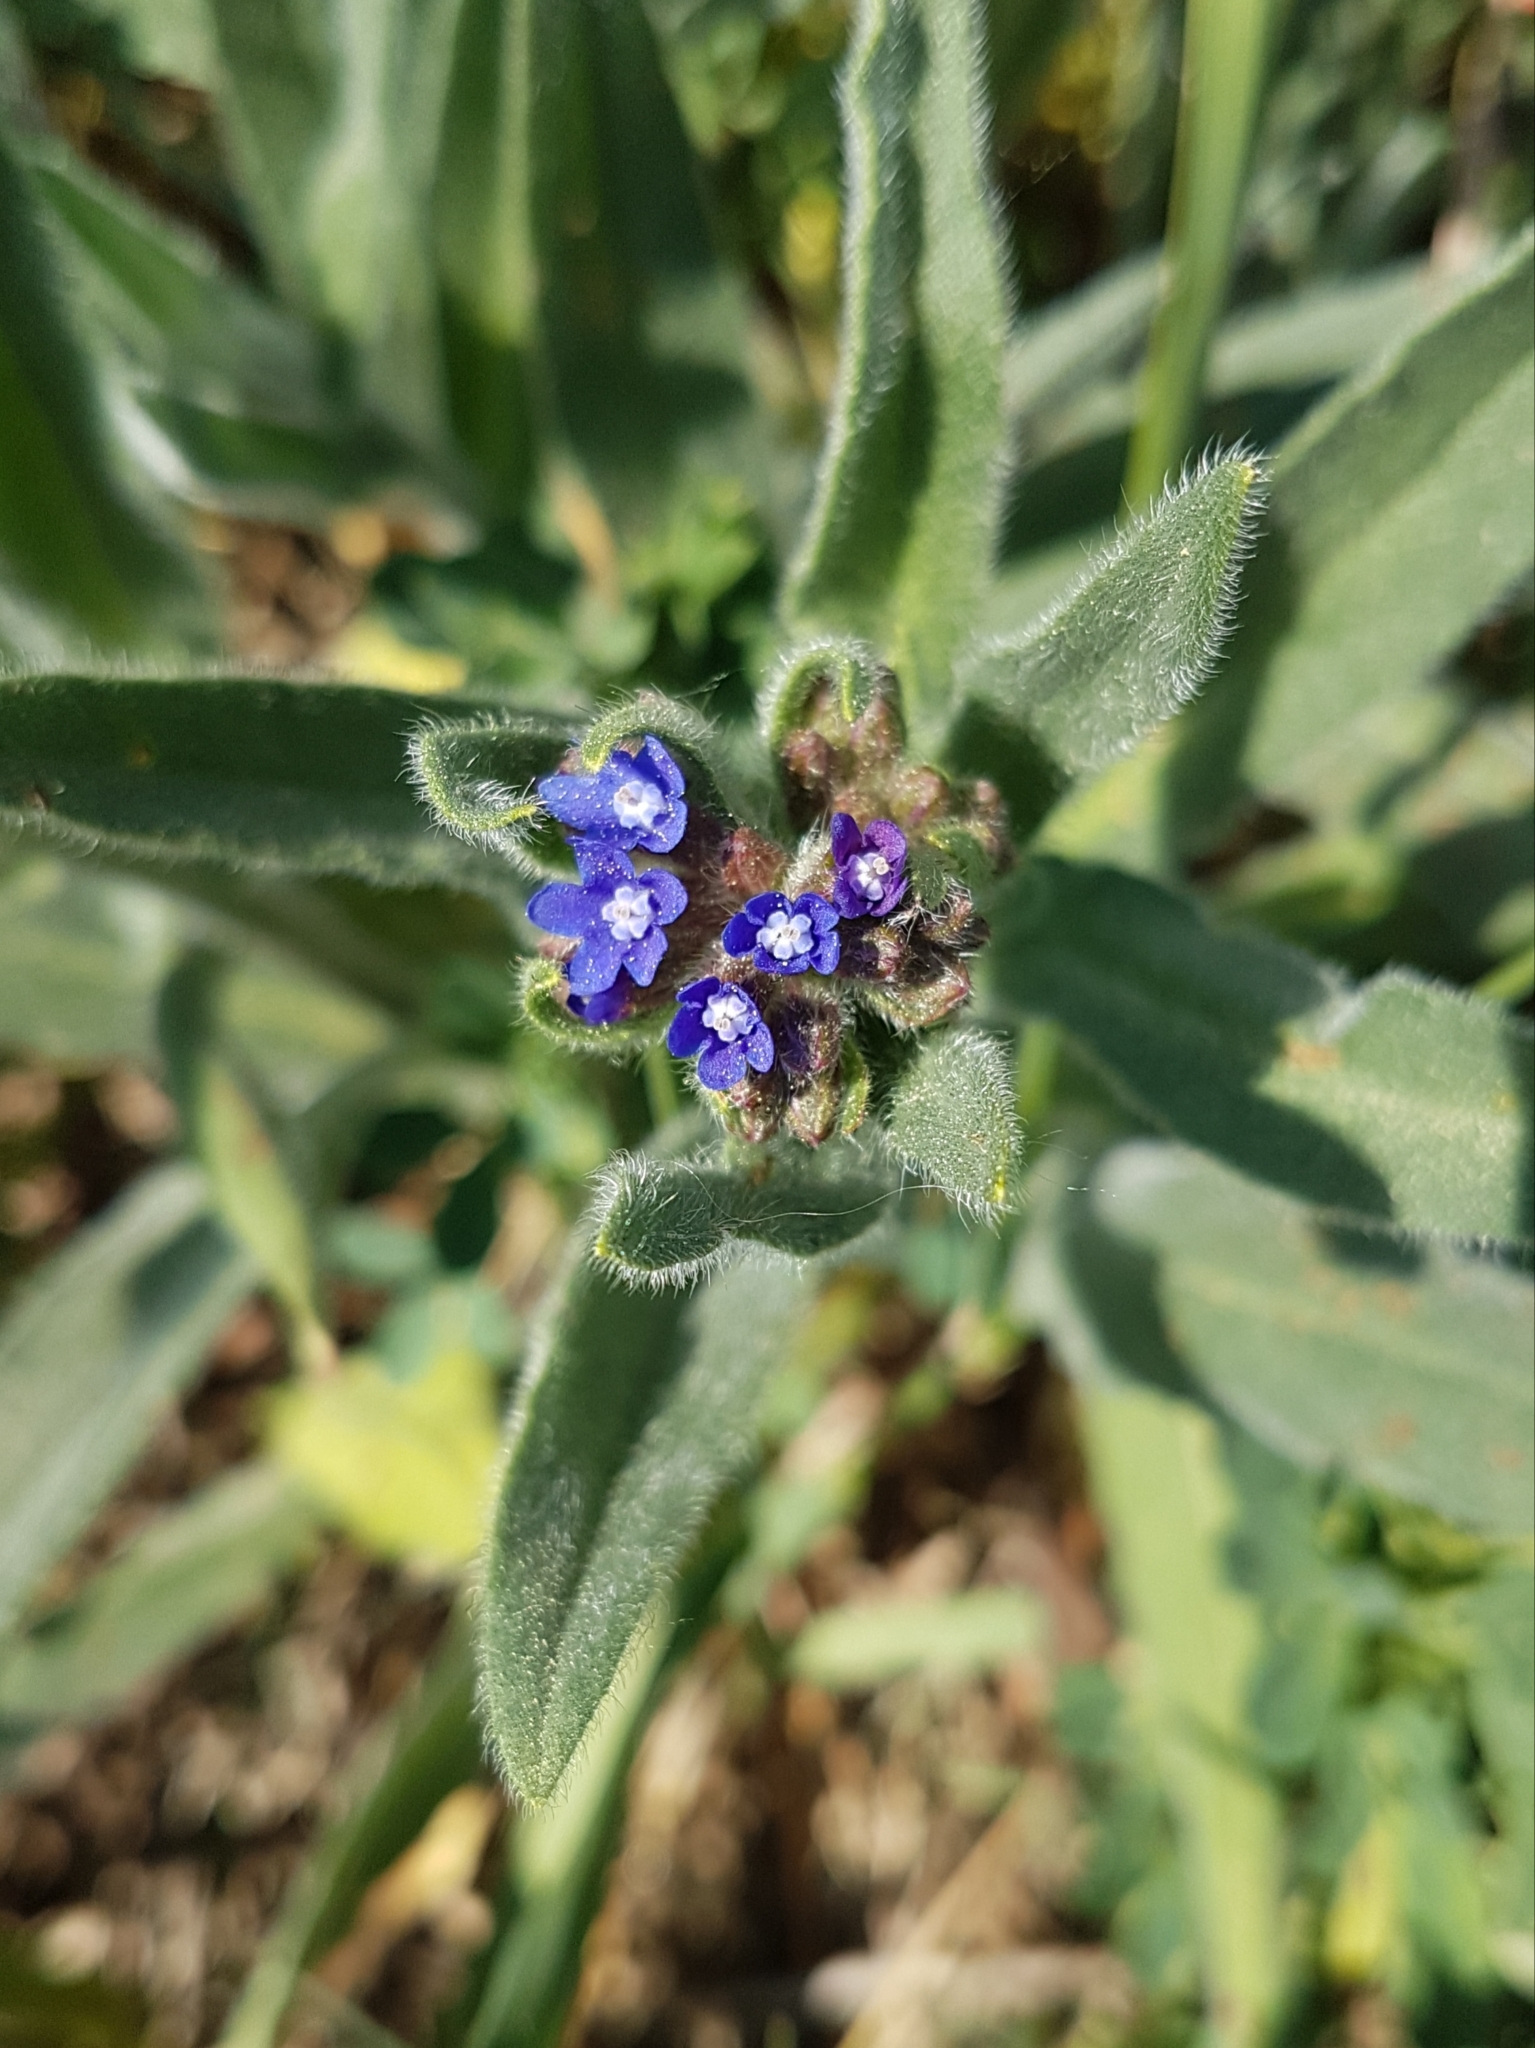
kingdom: Plantae
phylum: Tracheophyta
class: Magnoliopsida
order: Boraginales
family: Boraginaceae
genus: Anchusa
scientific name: Anchusa officinalis
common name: Alkanet
